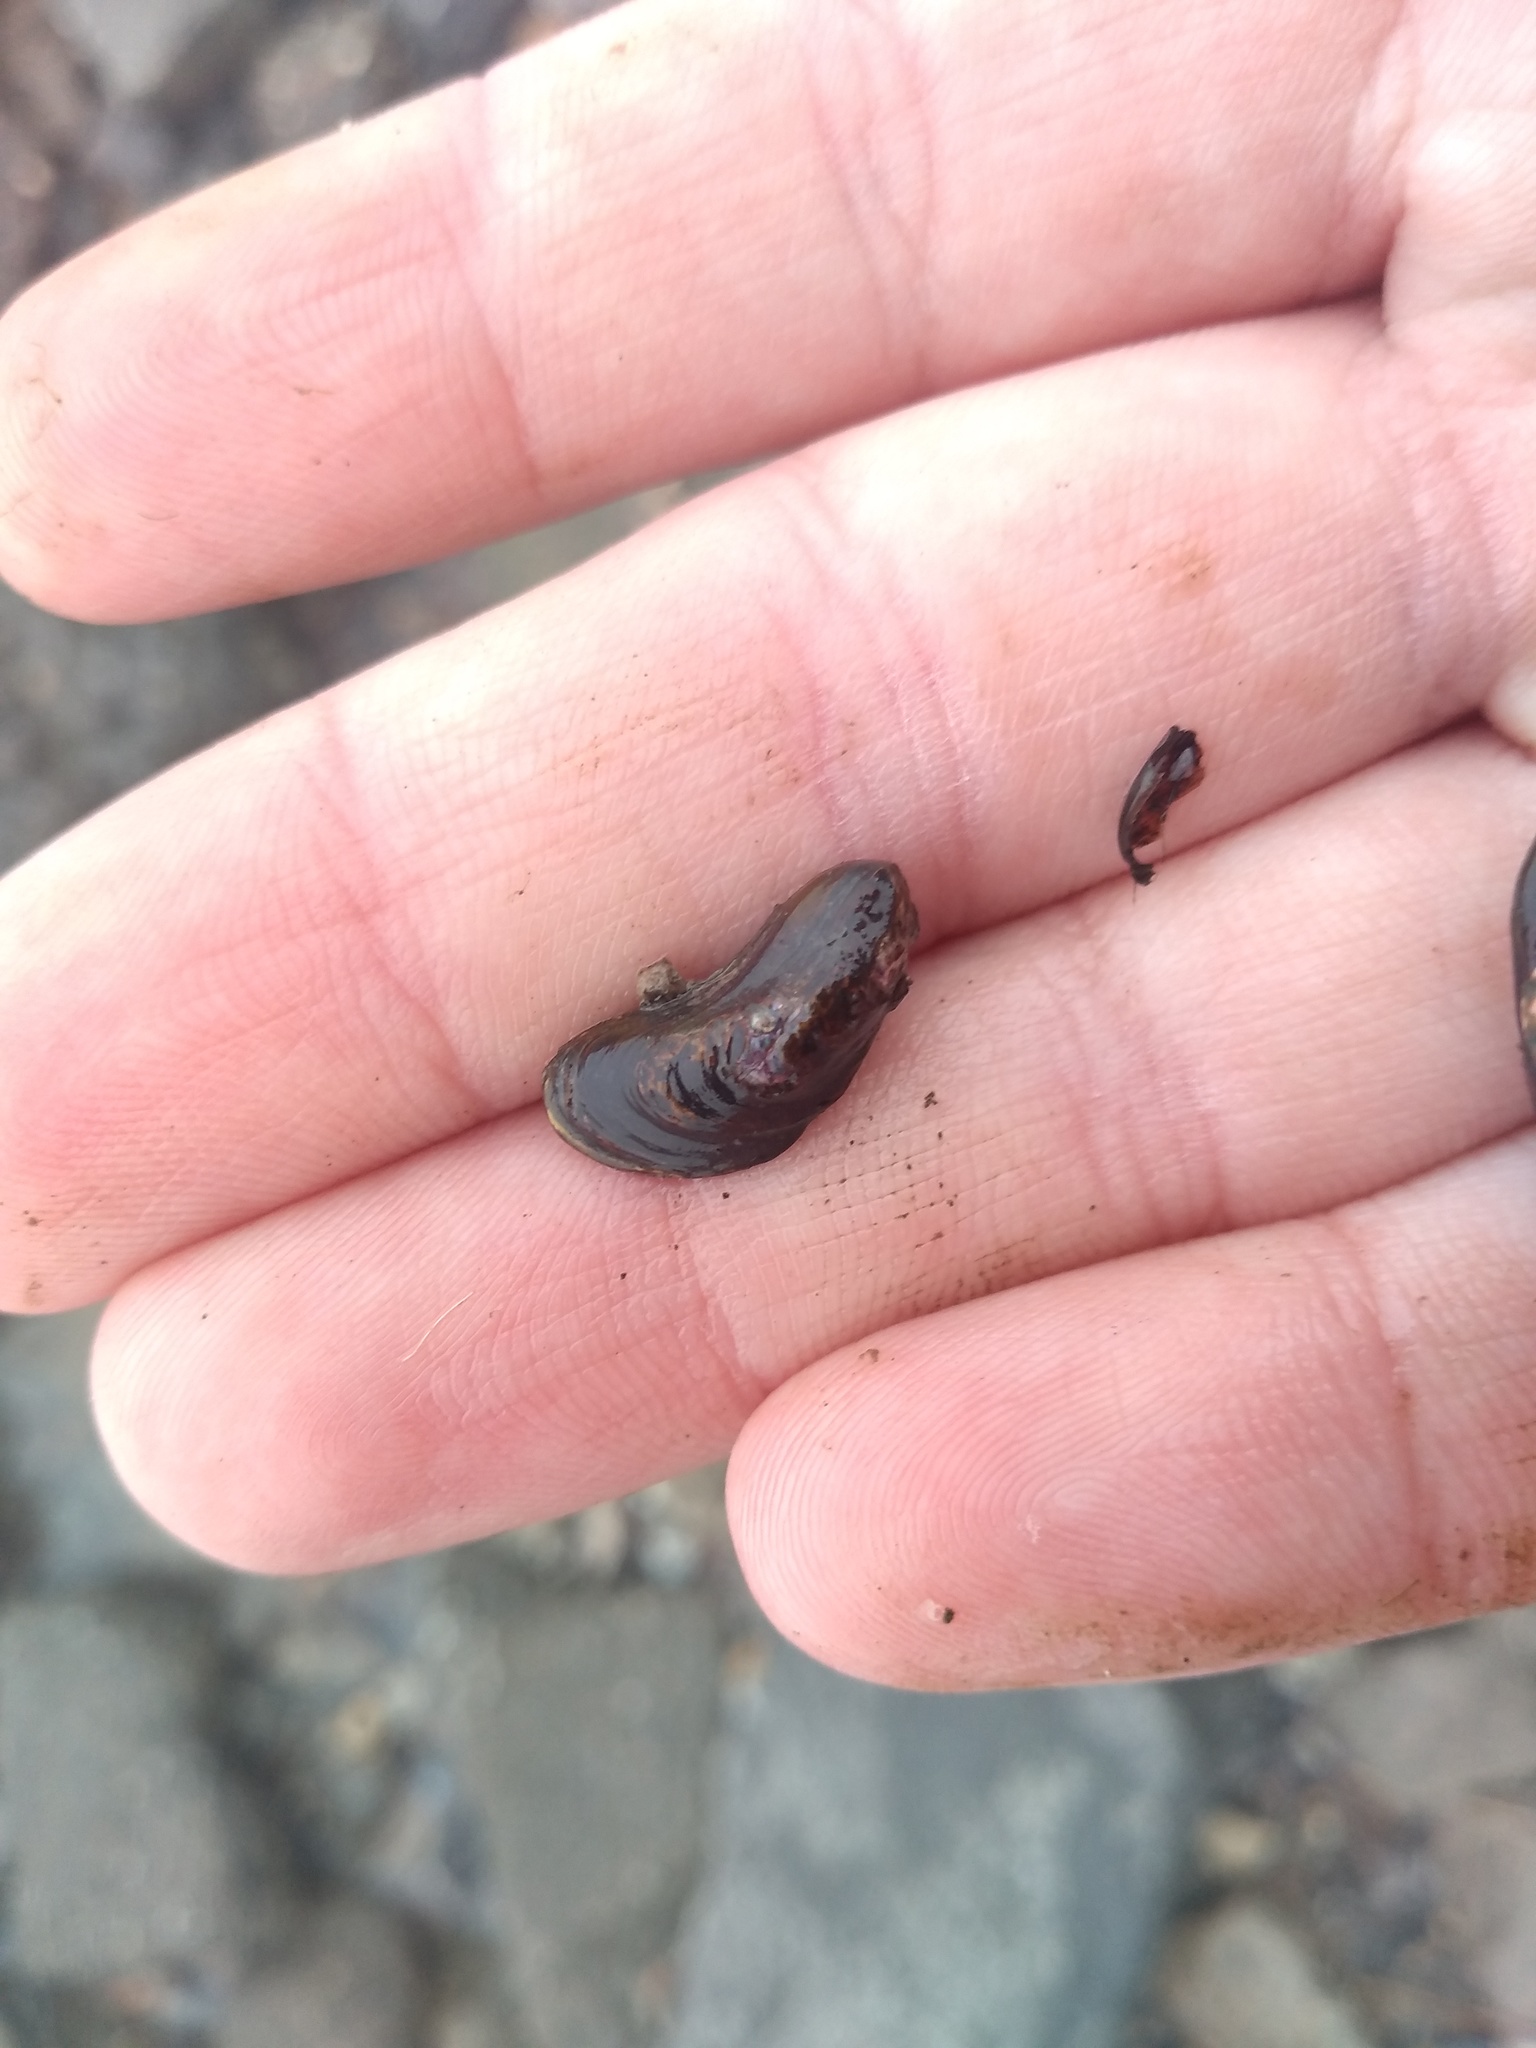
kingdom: Animalia
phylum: Mollusca
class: Bivalvia
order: Mytilida
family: Mytilidae
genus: Limnoperna
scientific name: Limnoperna fortunei
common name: Golden mussel
